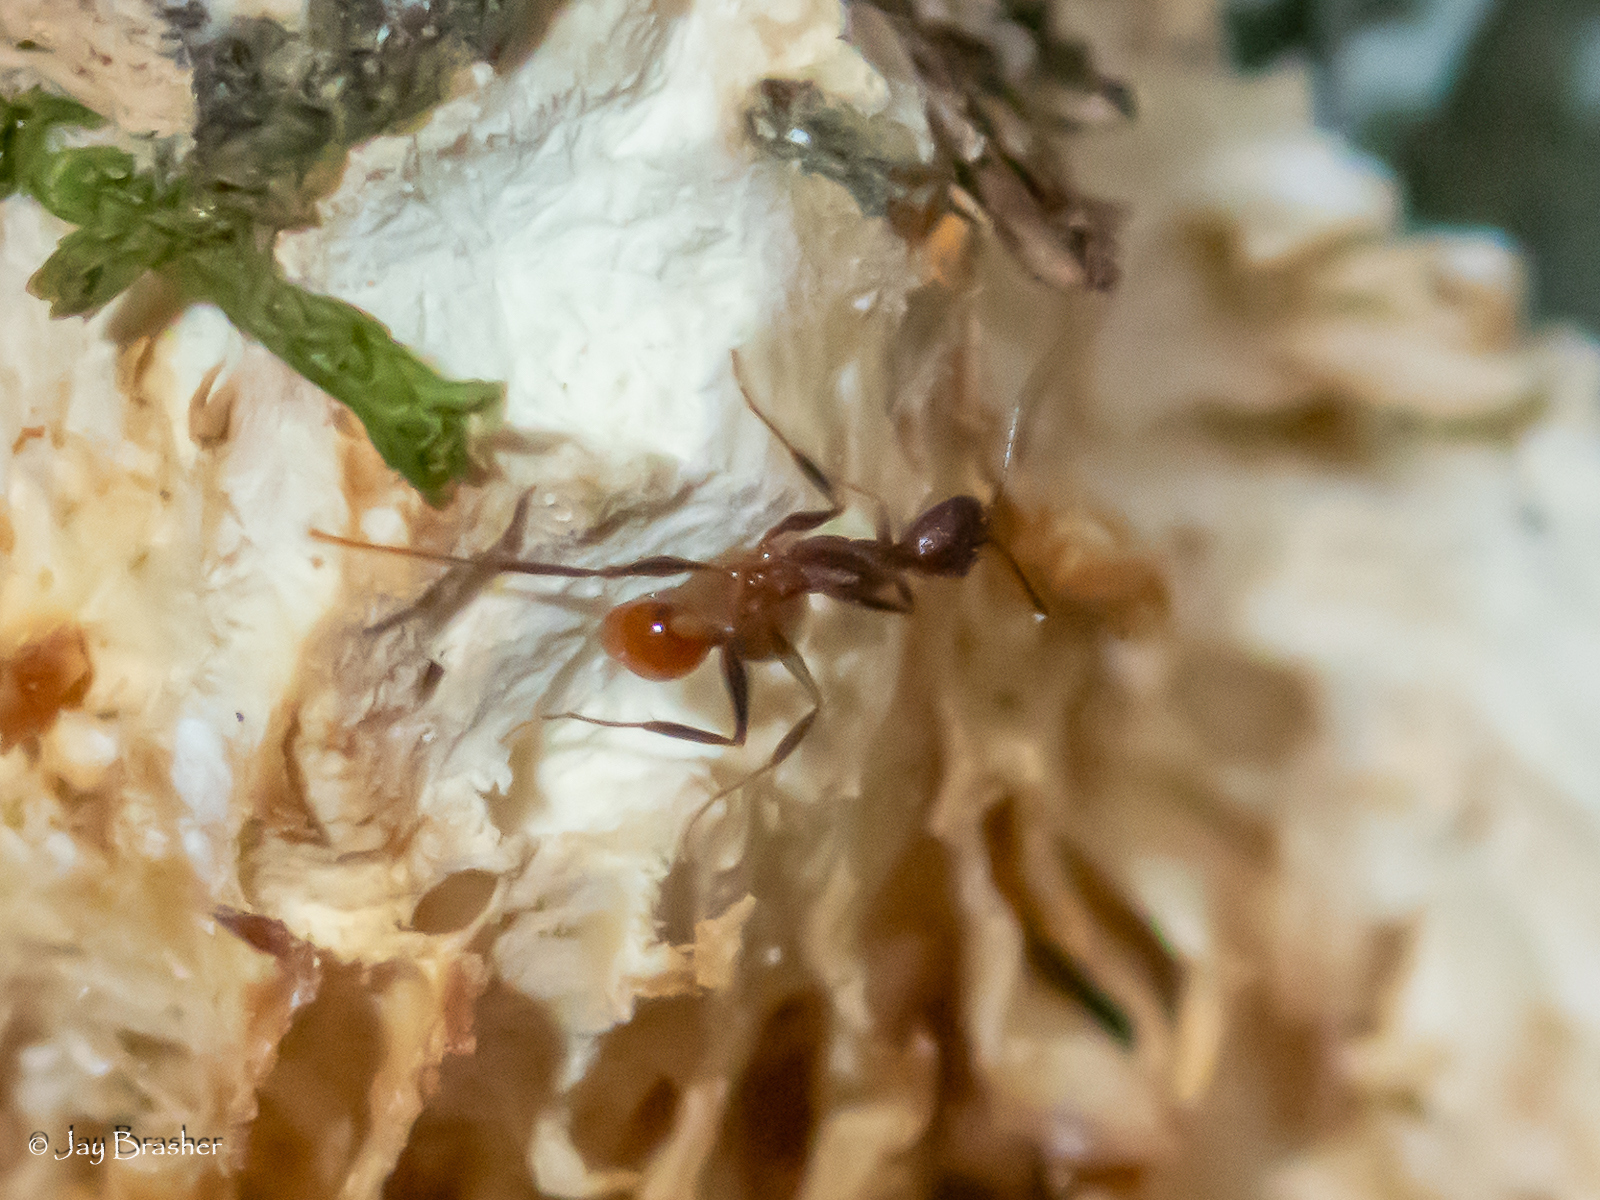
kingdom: Animalia
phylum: Arthropoda
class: Insecta
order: Hymenoptera
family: Formicidae
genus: Aphaenogaster
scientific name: Aphaenogaster lamellidens
